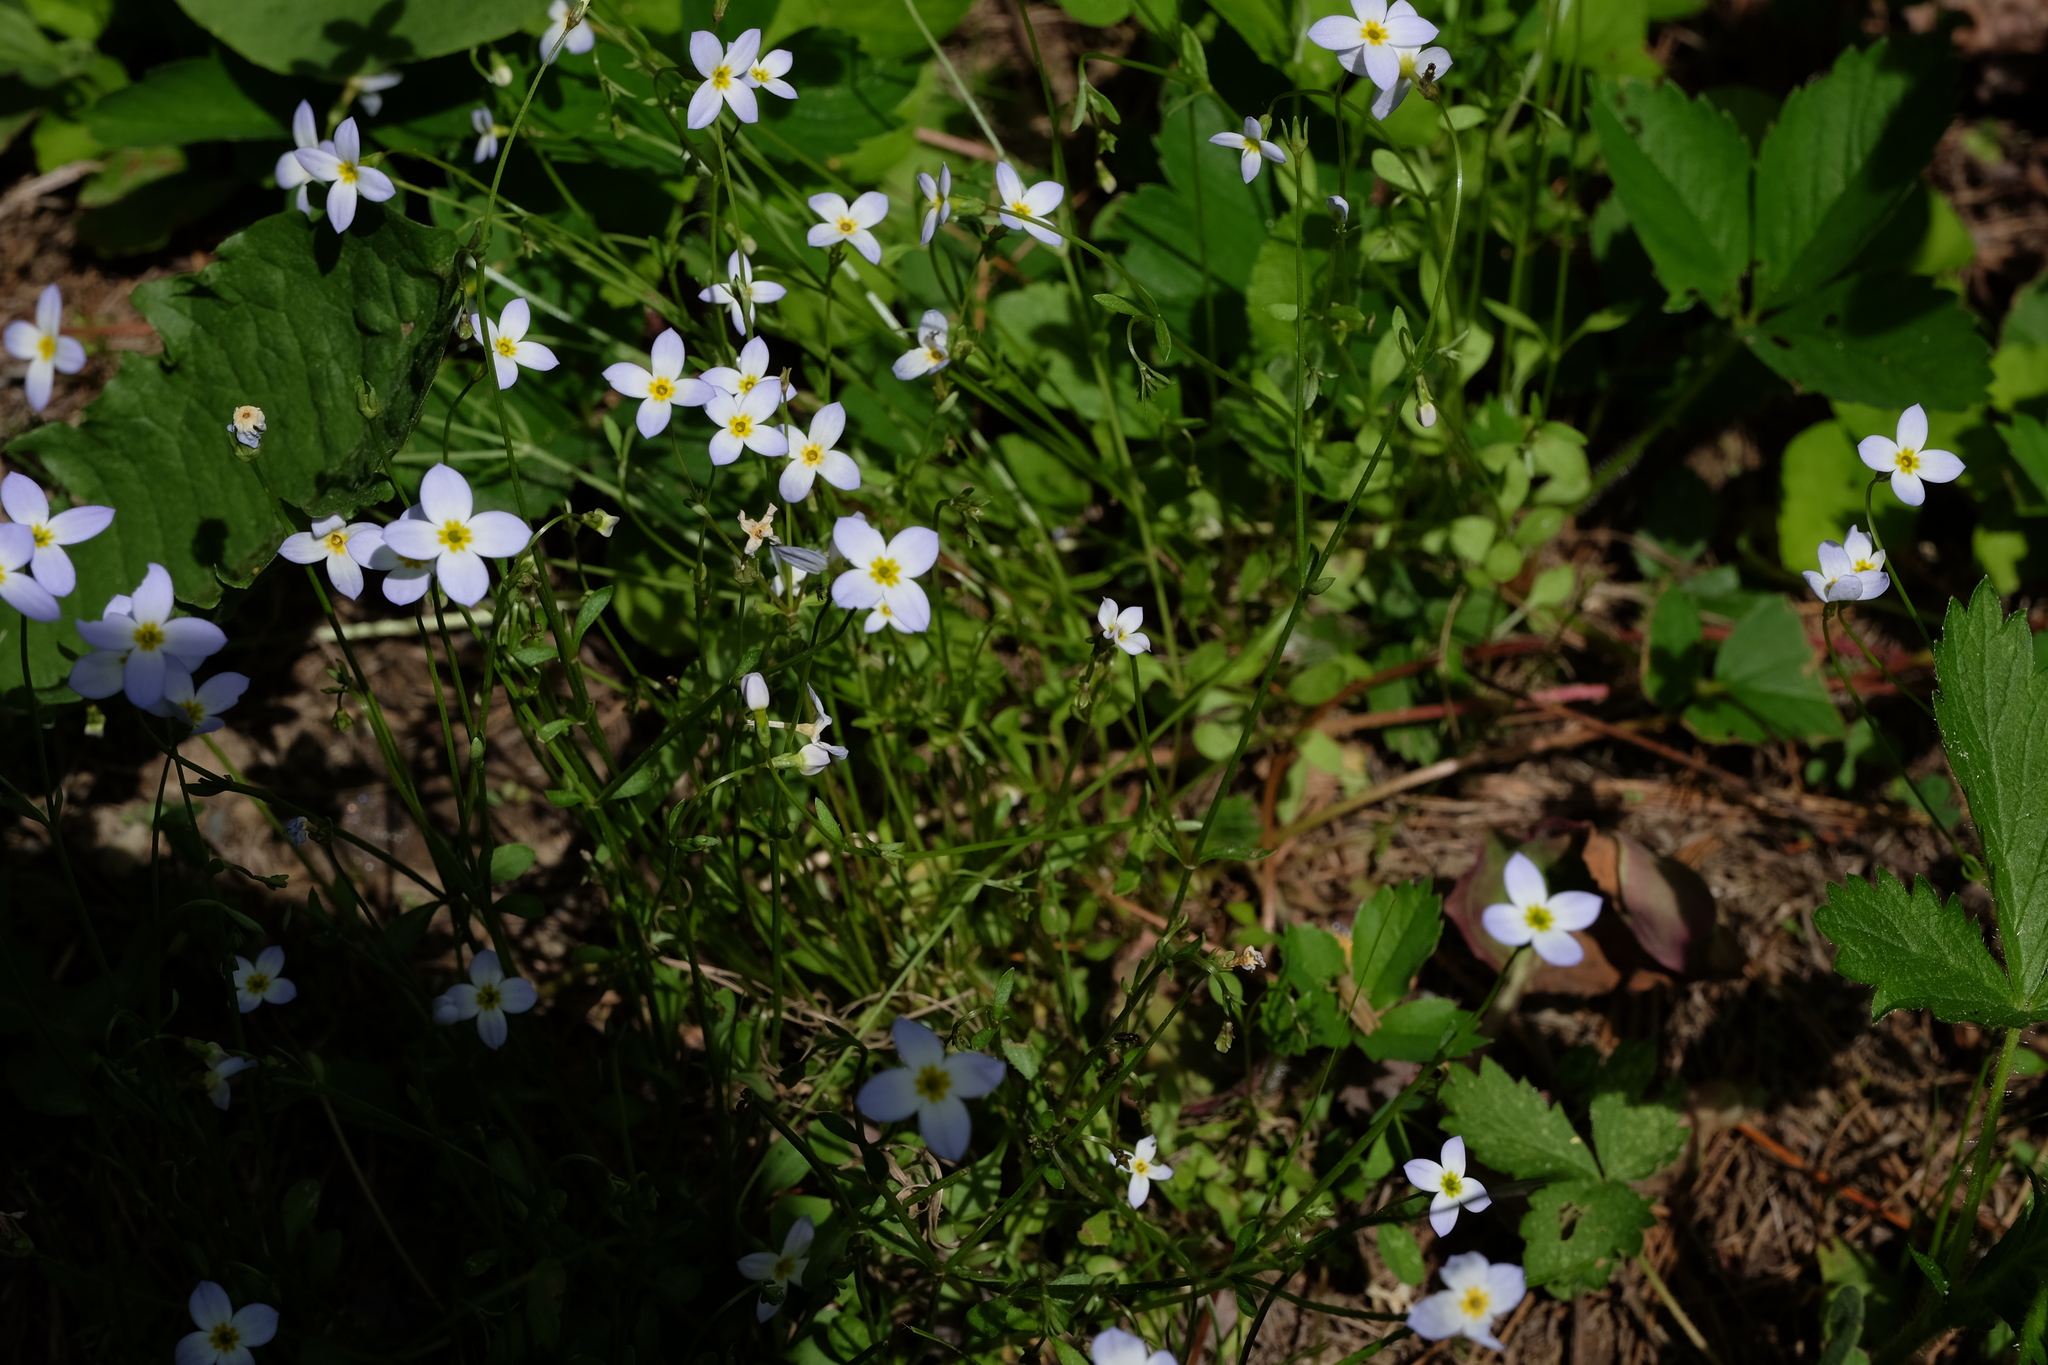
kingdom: Plantae
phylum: Tracheophyta
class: Magnoliopsida
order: Gentianales
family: Rubiaceae
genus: Houstonia
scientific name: Houstonia caerulea
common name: Bluets
